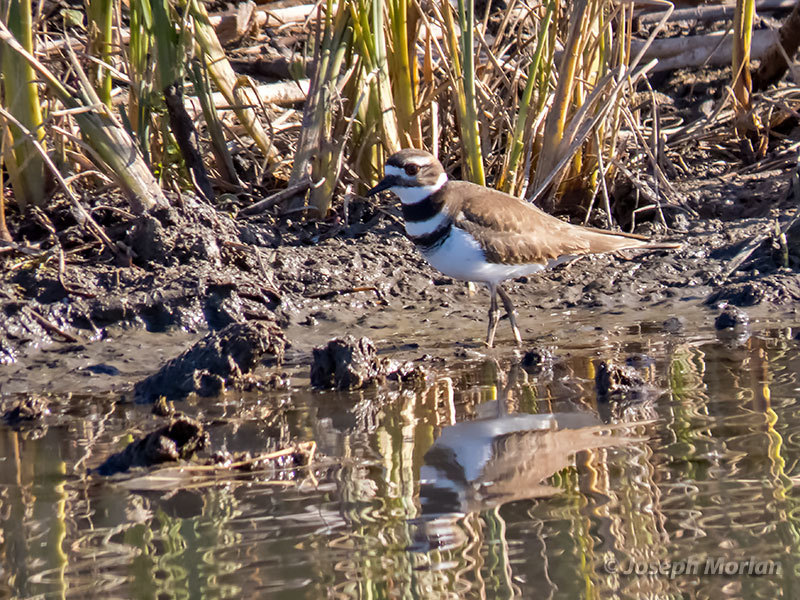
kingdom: Animalia
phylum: Chordata
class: Aves
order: Charadriiformes
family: Charadriidae
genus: Charadrius
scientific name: Charadrius vociferus
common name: Killdeer
